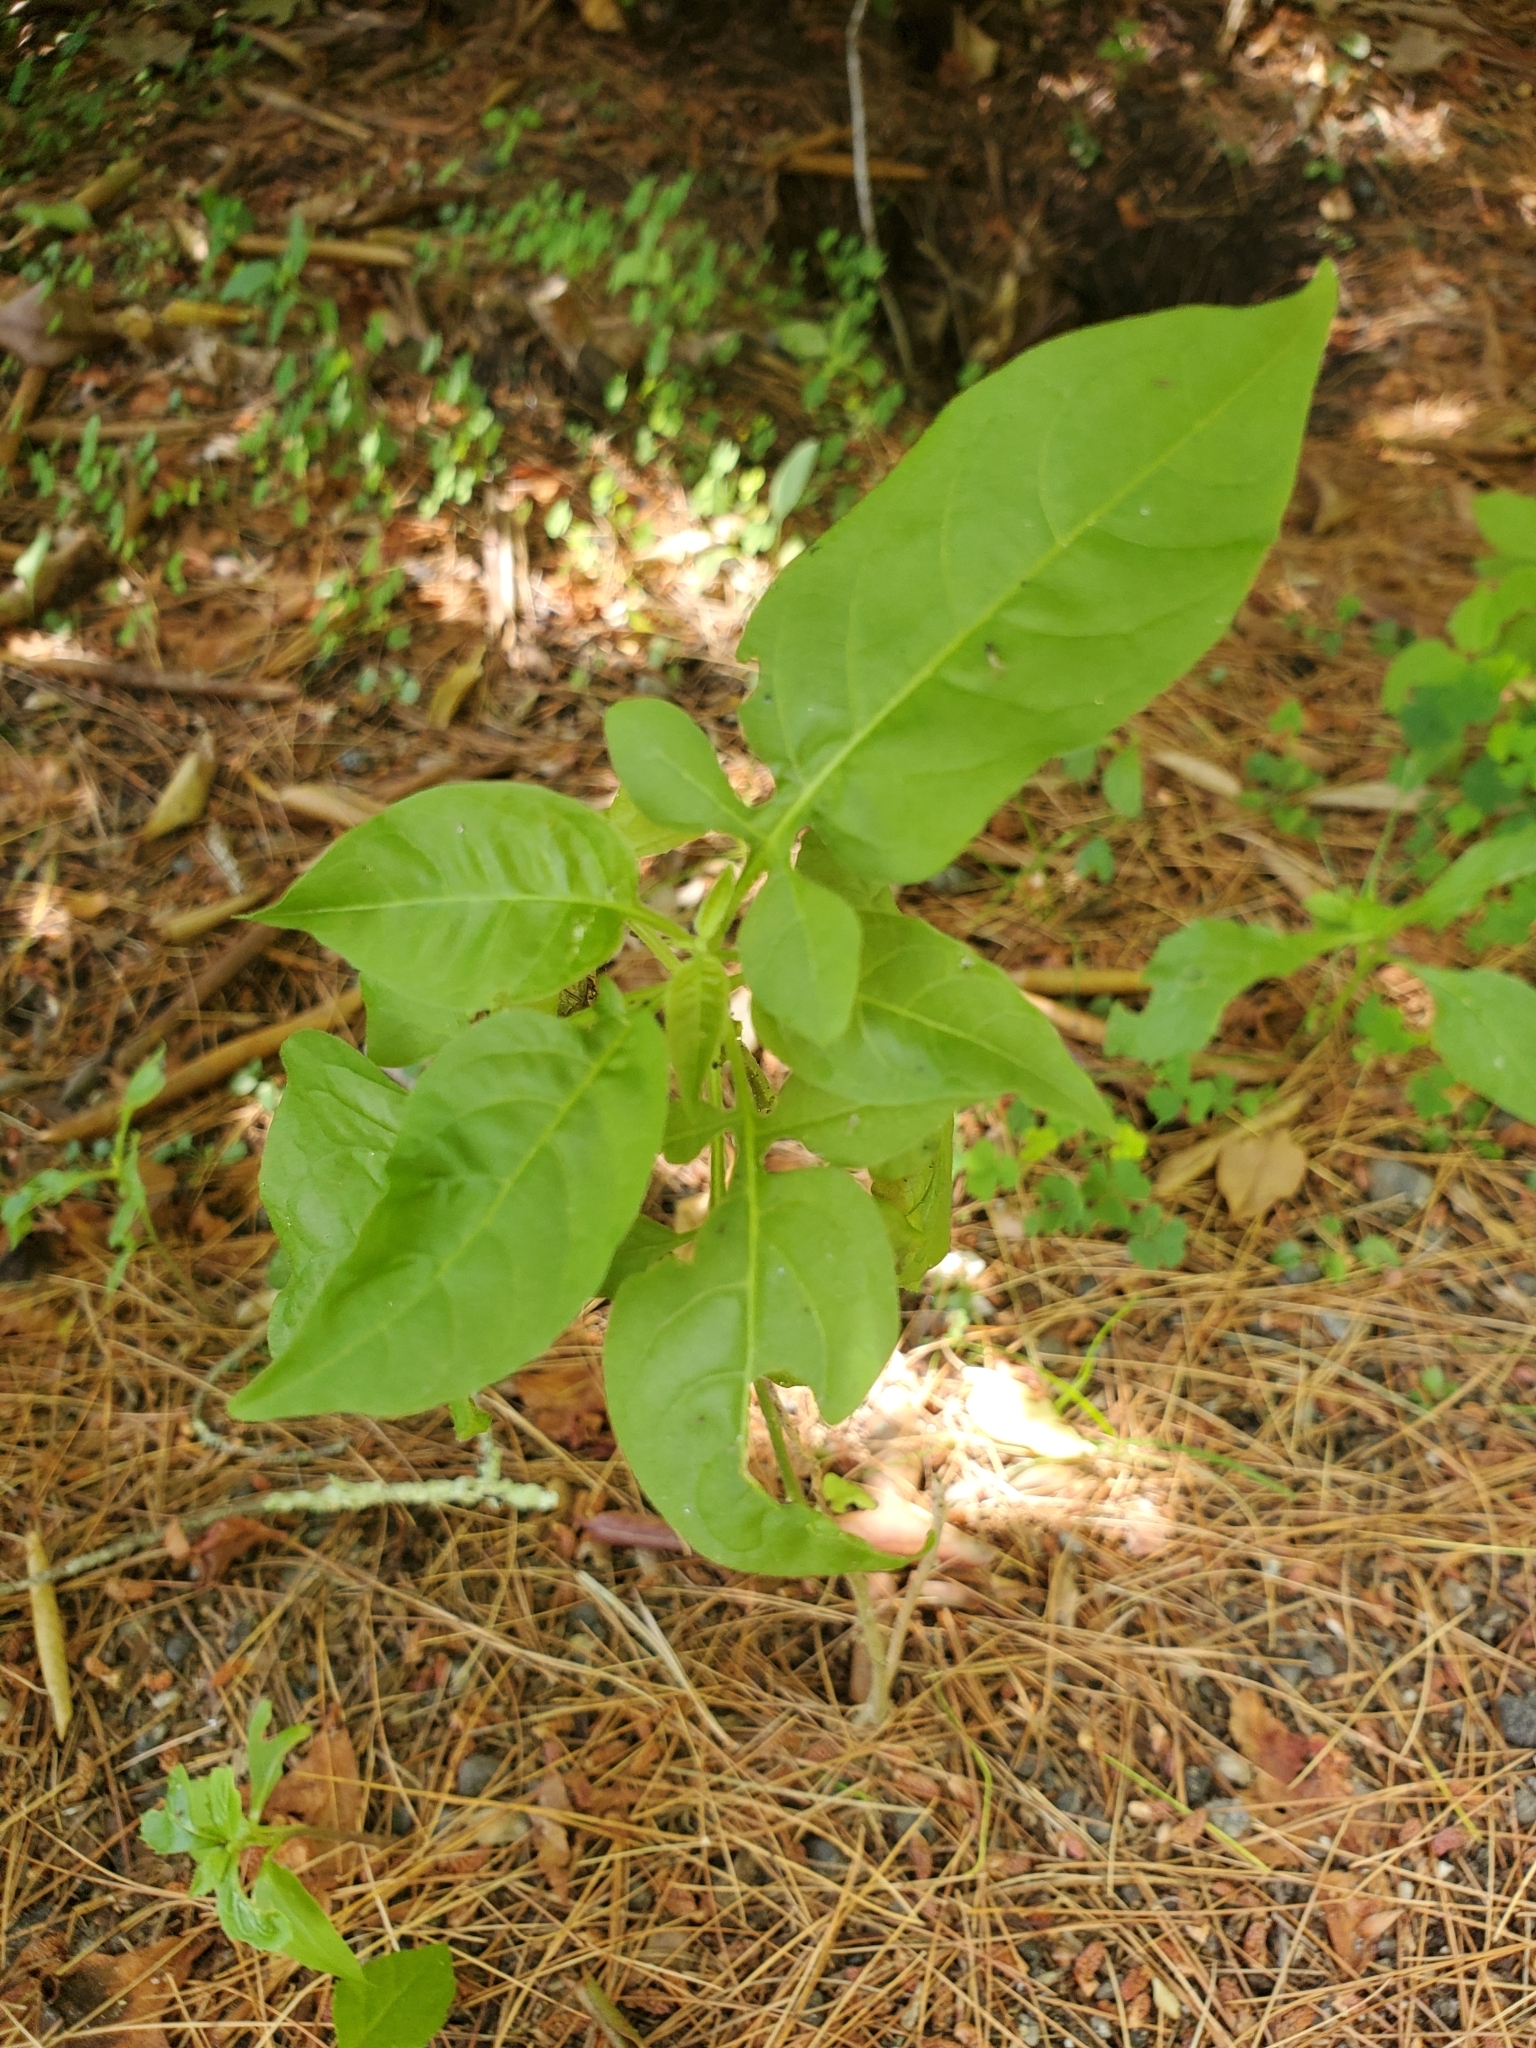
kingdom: Plantae
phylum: Tracheophyta
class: Magnoliopsida
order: Solanales
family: Solanaceae
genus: Solanum
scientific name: Solanum dulcamara
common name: Climbing nightshade
